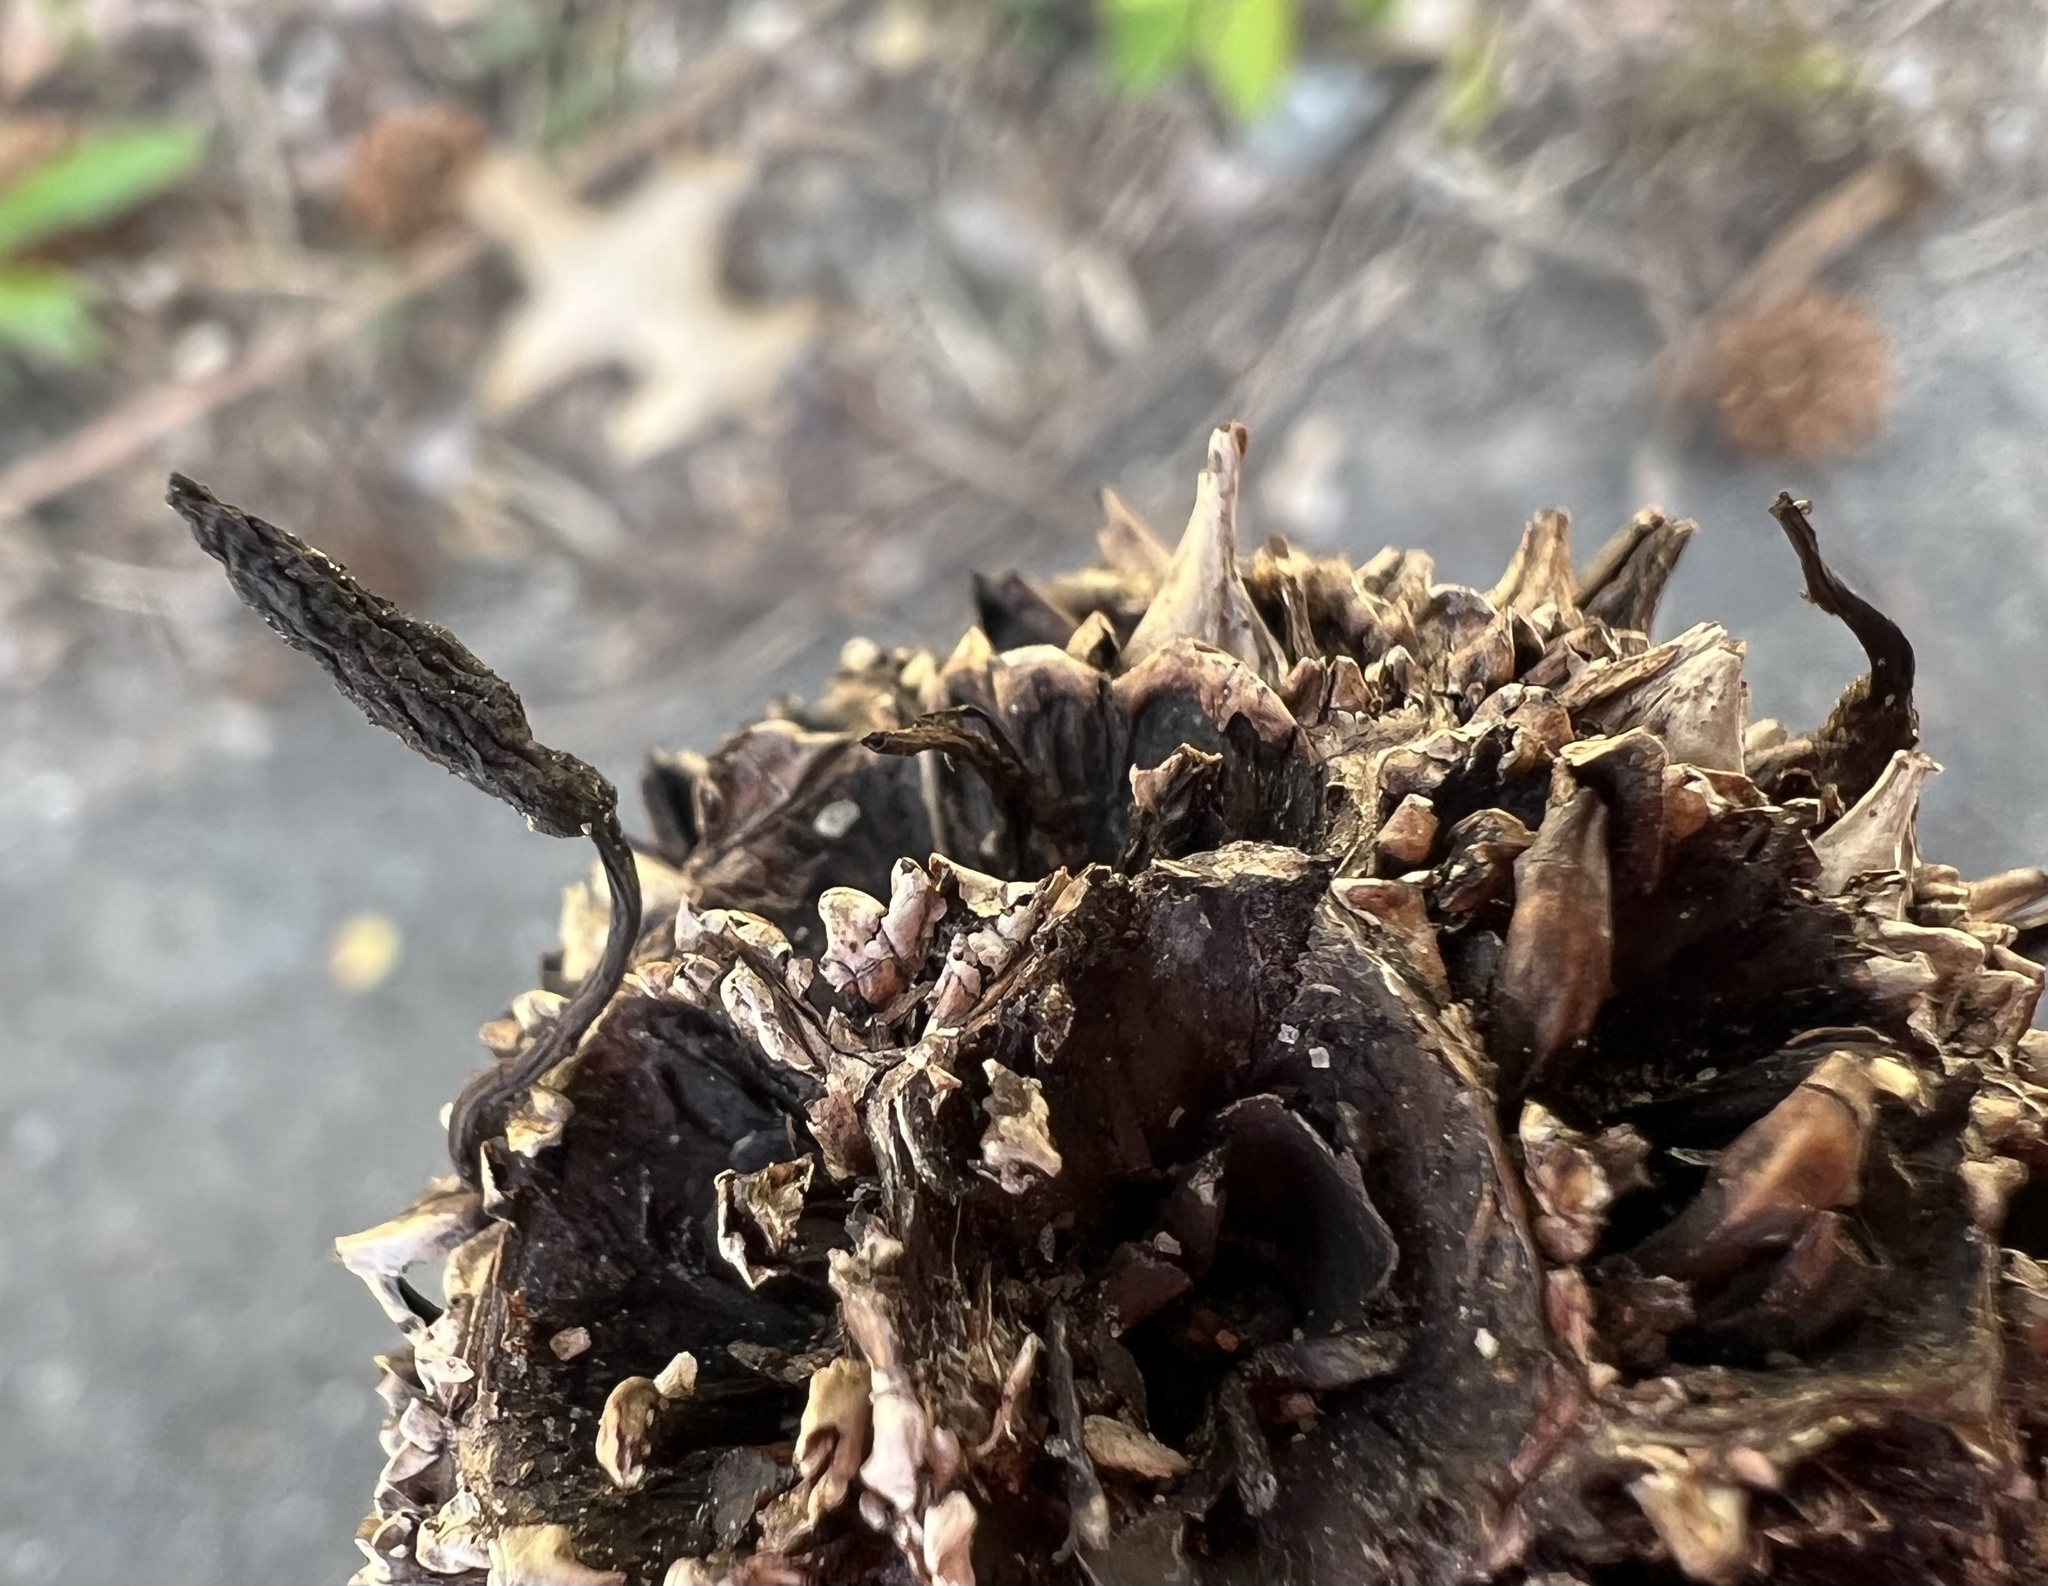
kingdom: Fungi
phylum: Ascomycota
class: Sordariomycetes
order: Xylariales
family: Xylariaceae
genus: Xylaria
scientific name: Xylaria liquidambaris
